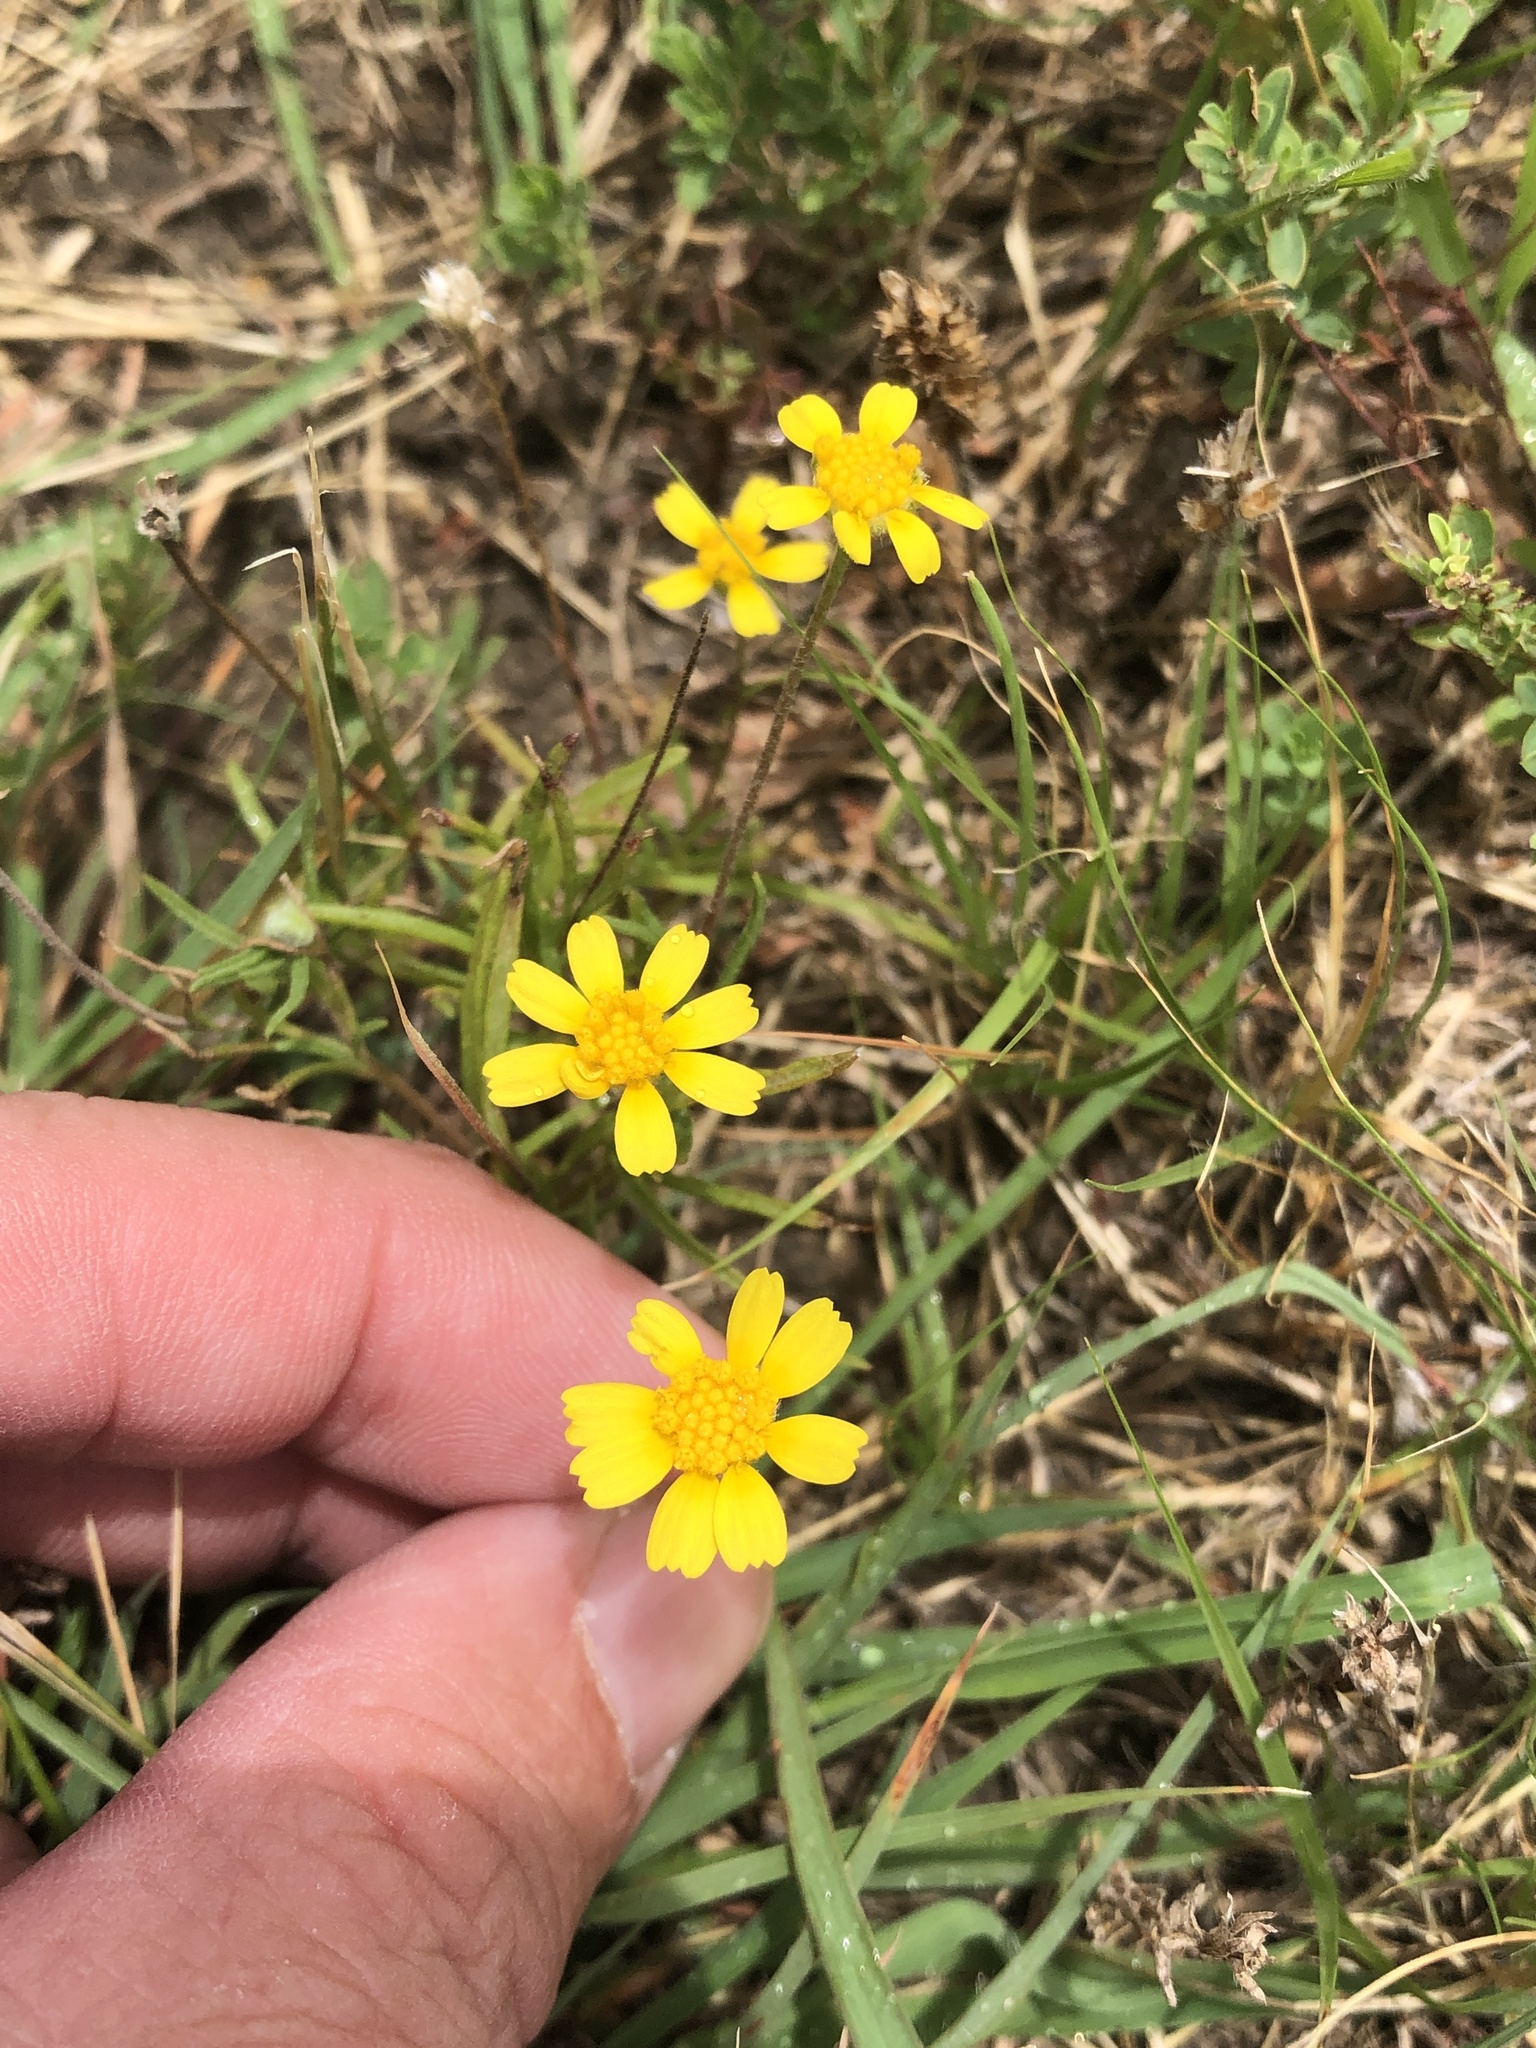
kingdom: Plantae
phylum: Tracheophyta
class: Magnoliopsida
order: Asterales
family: Asteraceae
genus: Tetraneuris
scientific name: Tetraneuris linearifolia
